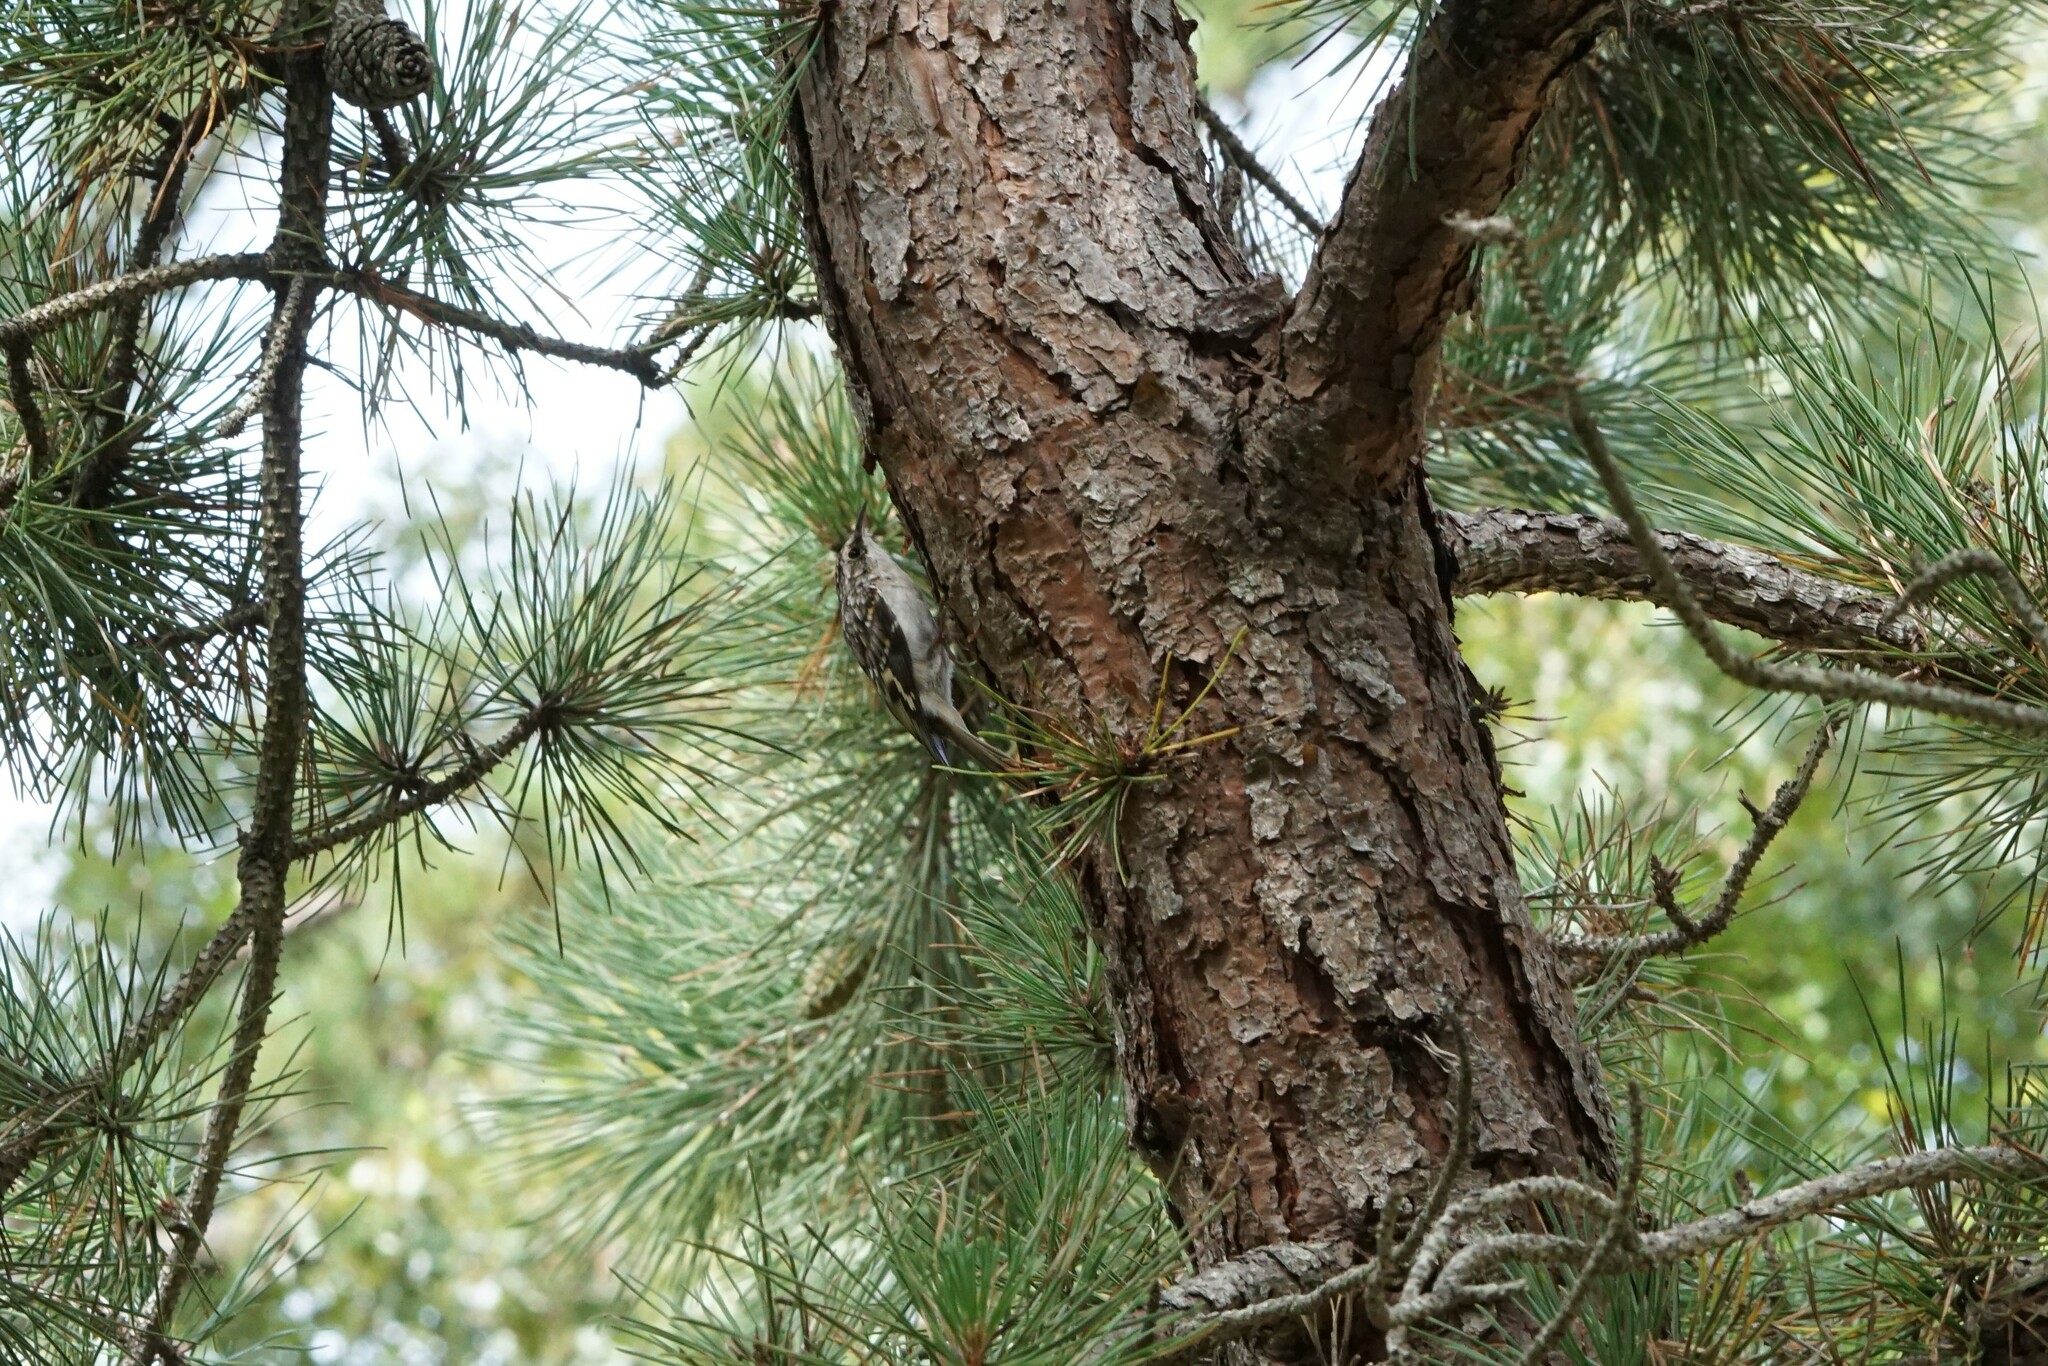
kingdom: Animalia
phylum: Chordata
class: Aves
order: Passeriformes
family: Certhiidae
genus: Certhia
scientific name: Certhia americana
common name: Brown creeper
